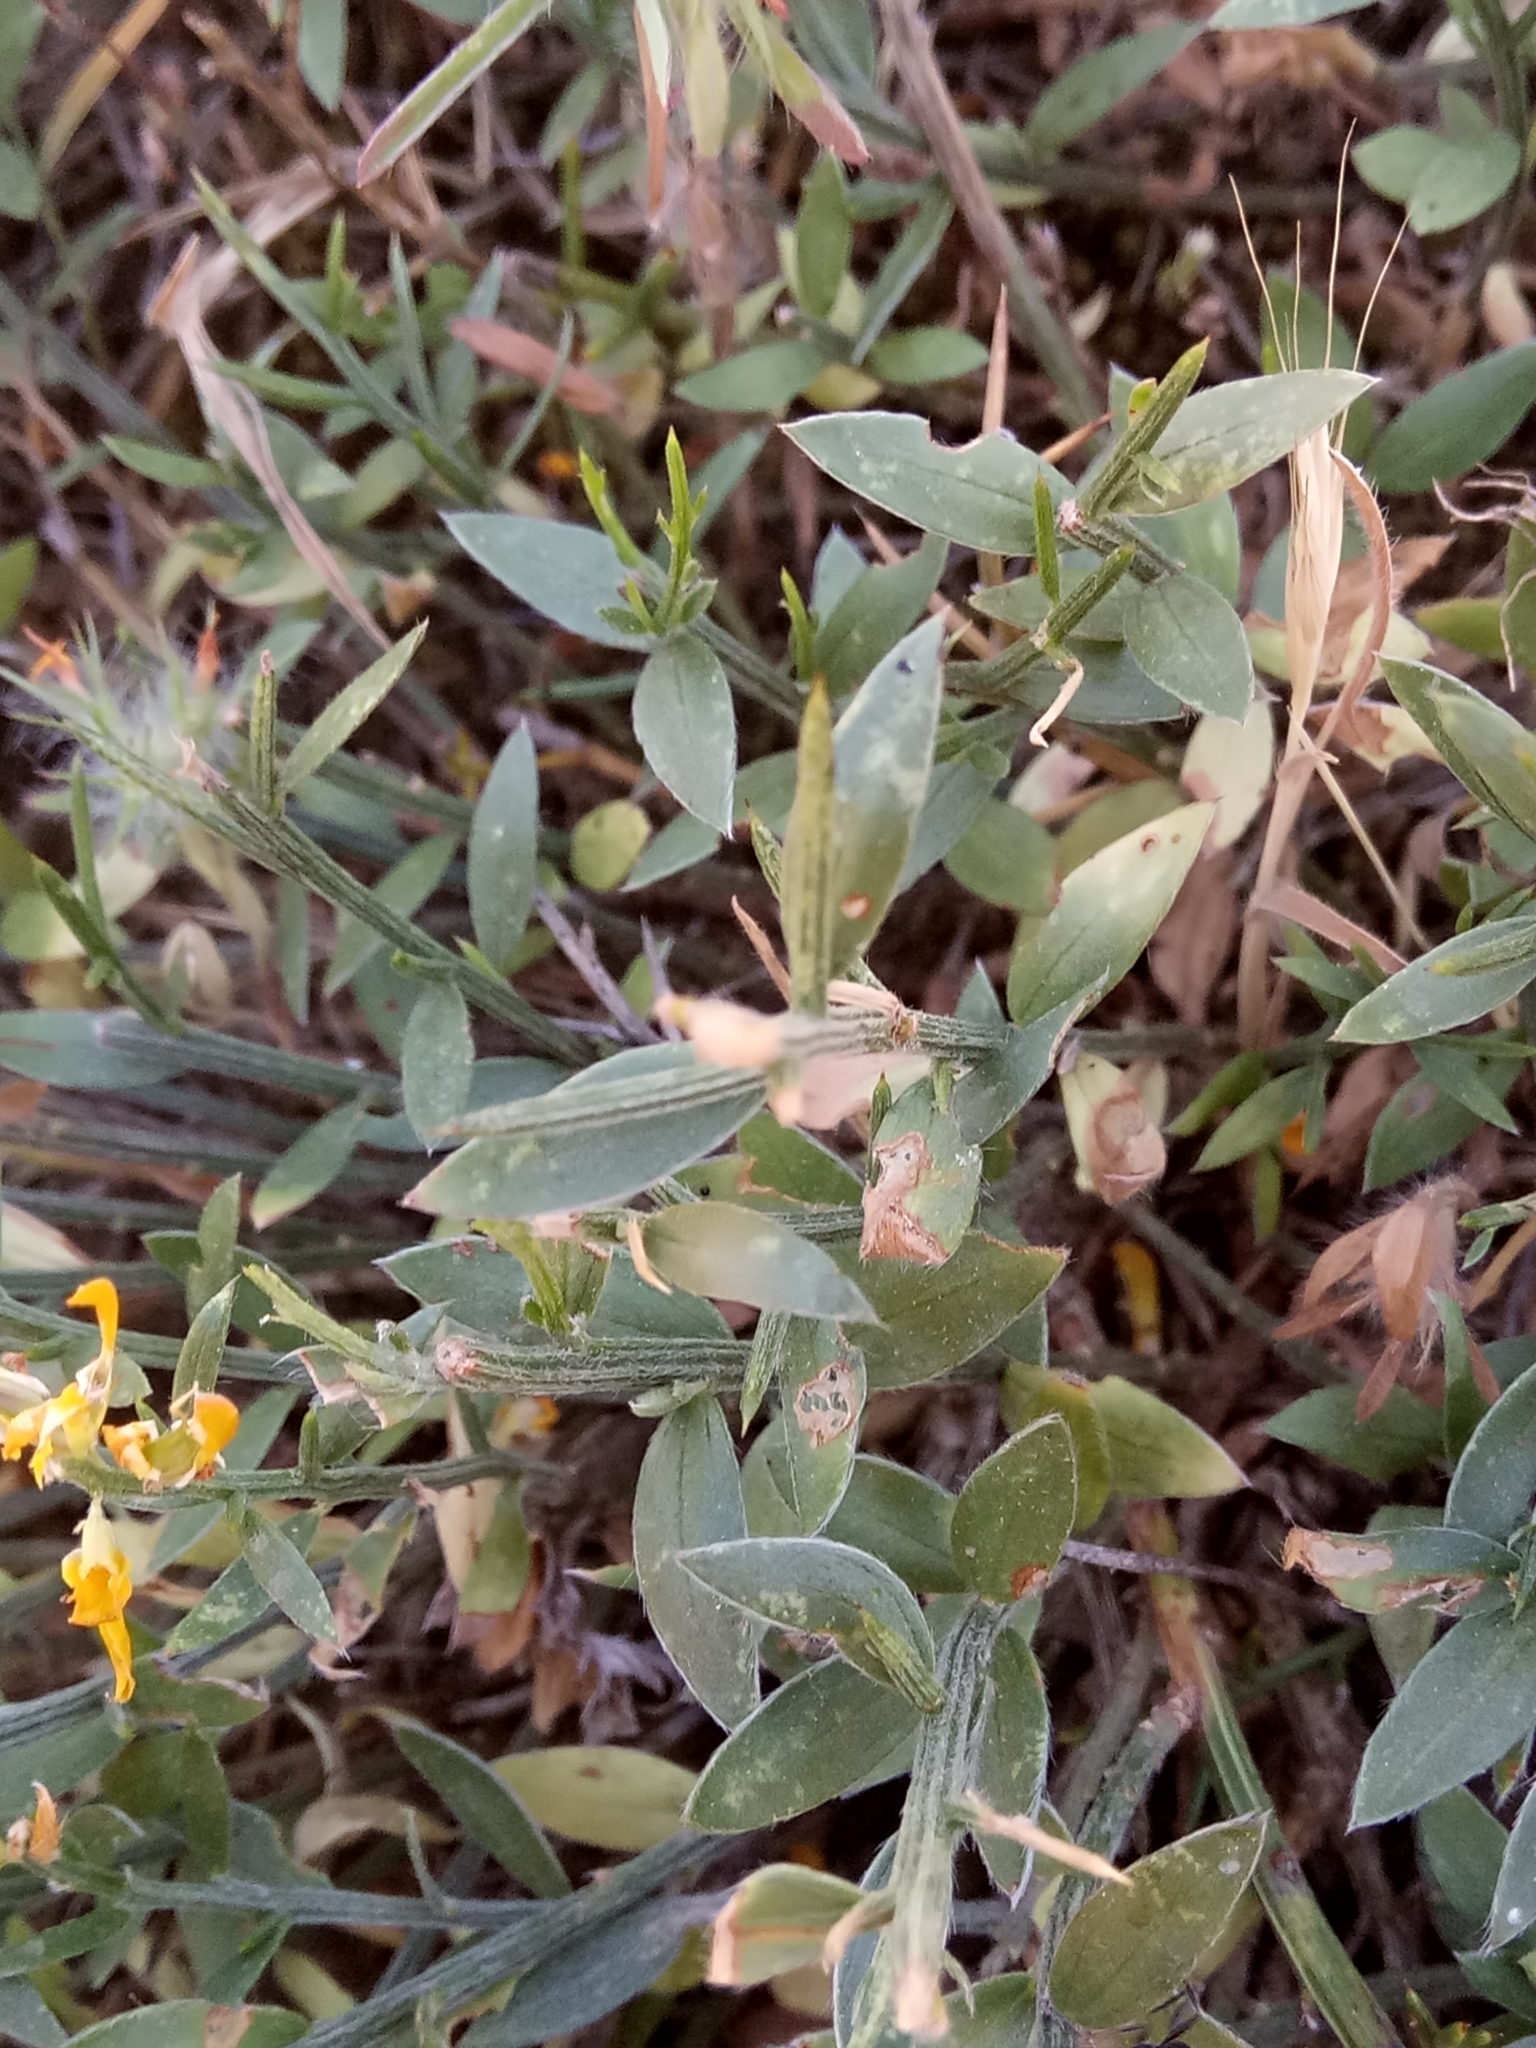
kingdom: Plantae
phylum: Tracheophyta
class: Magnoliopsida
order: Fabales
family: Fabaceae
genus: Genista
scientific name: Genista tricuspidata
